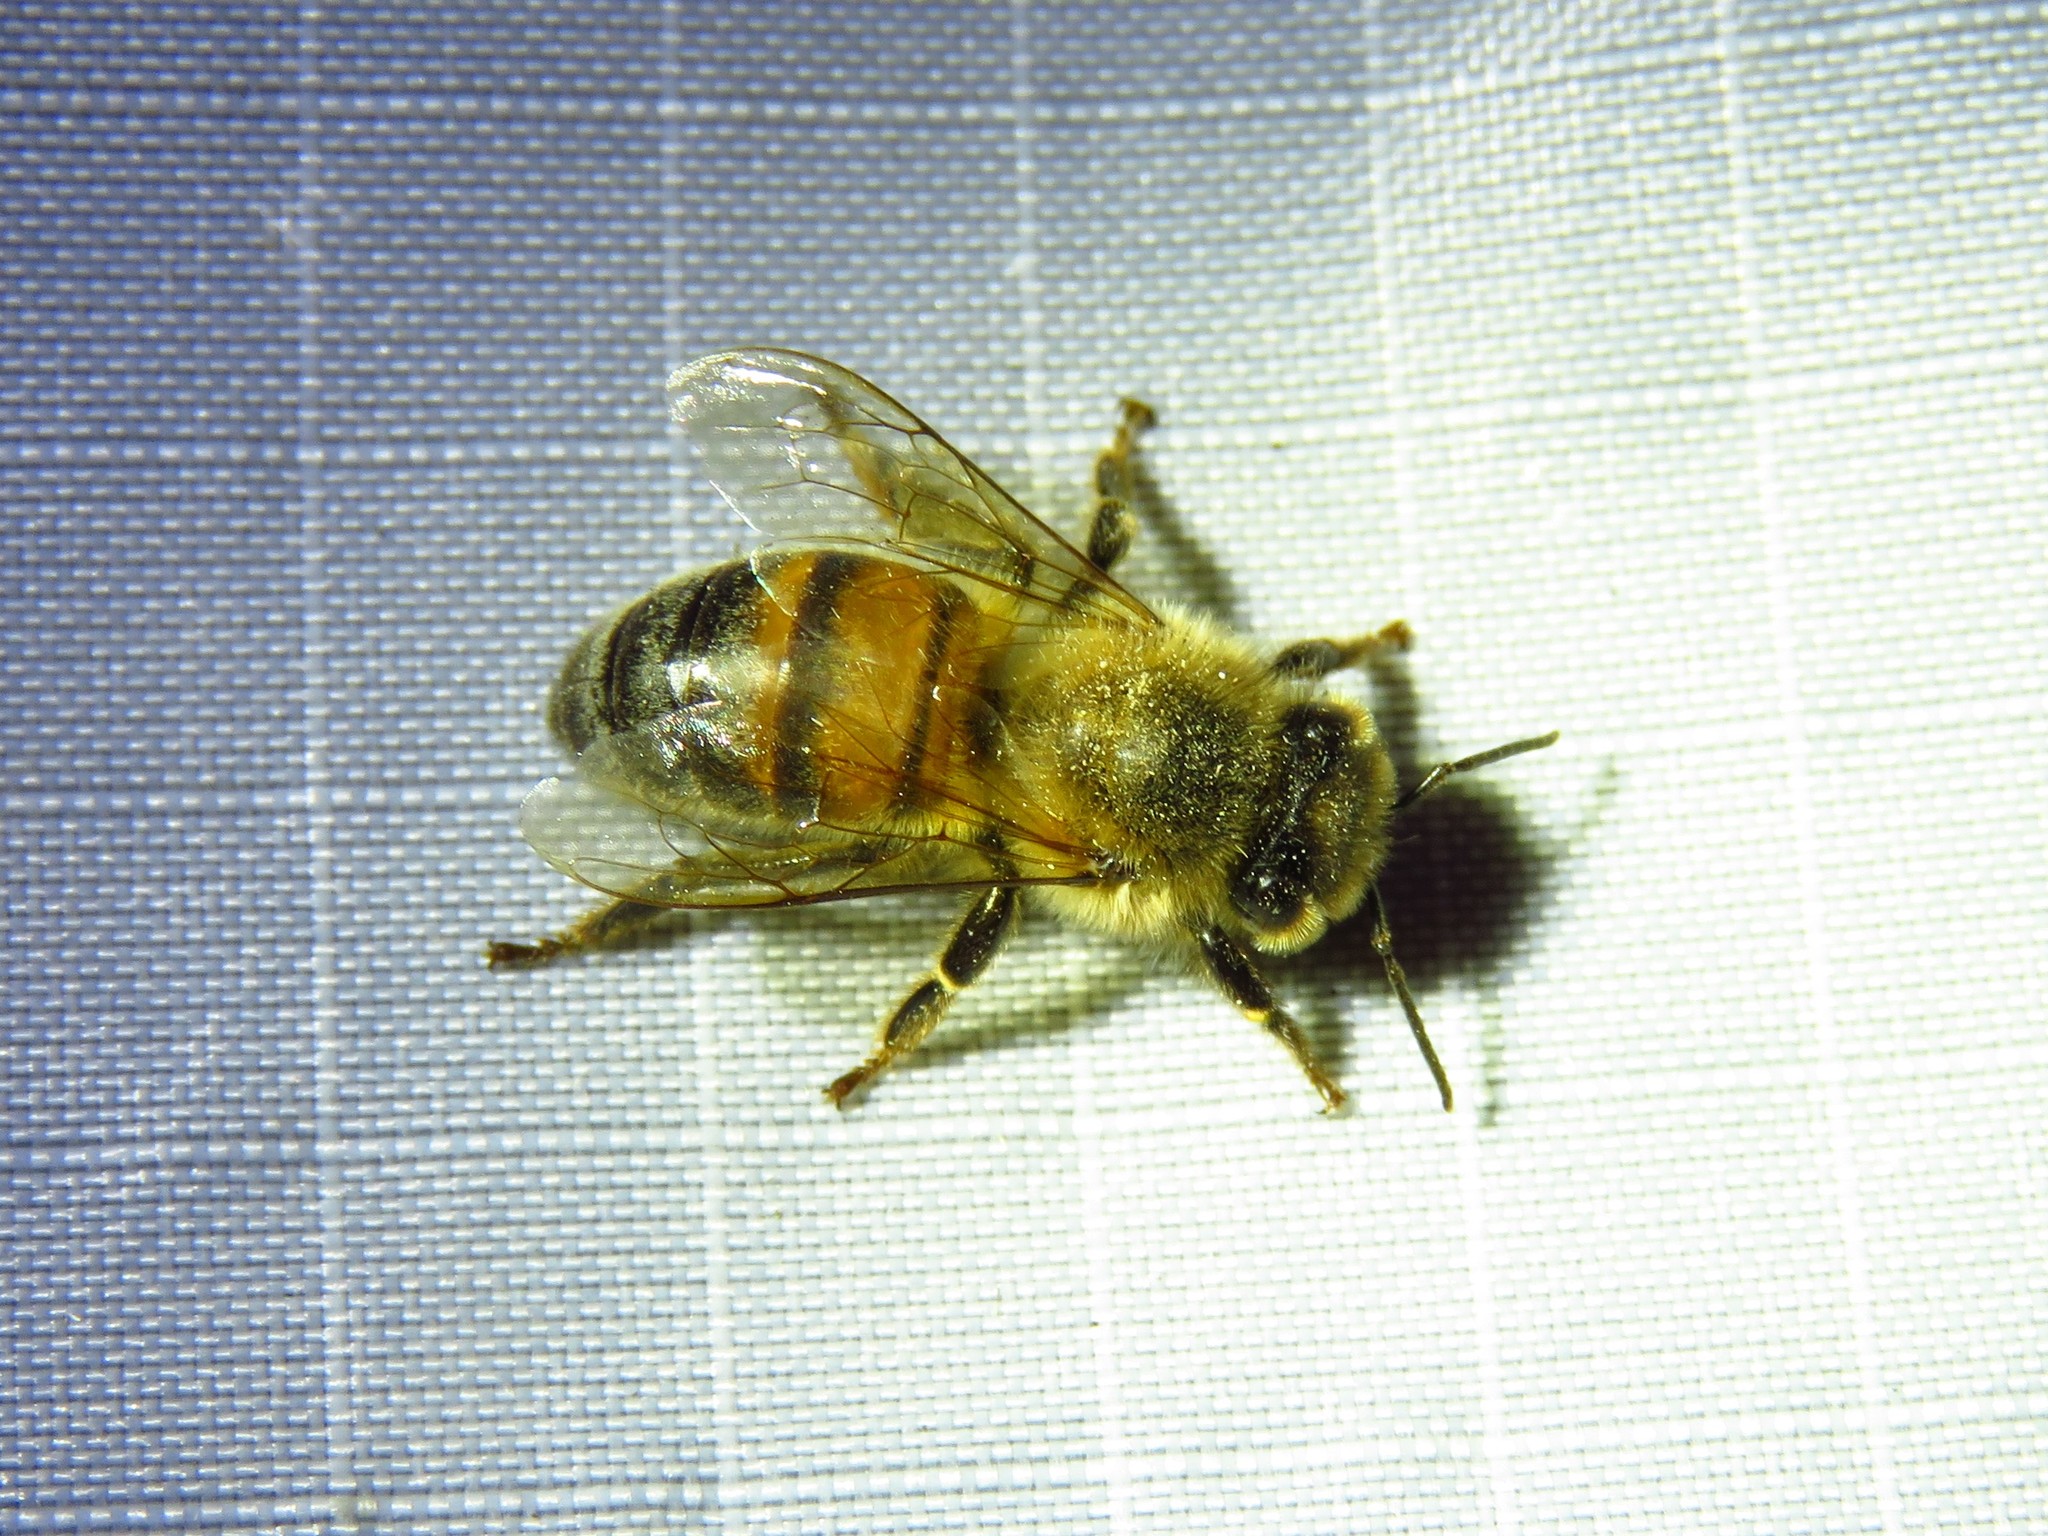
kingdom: Animalia
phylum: Arthropoda
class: Insecta
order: Hymenoptera
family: Apidae
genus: Apis
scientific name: Apis mellifera
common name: Honey bee
